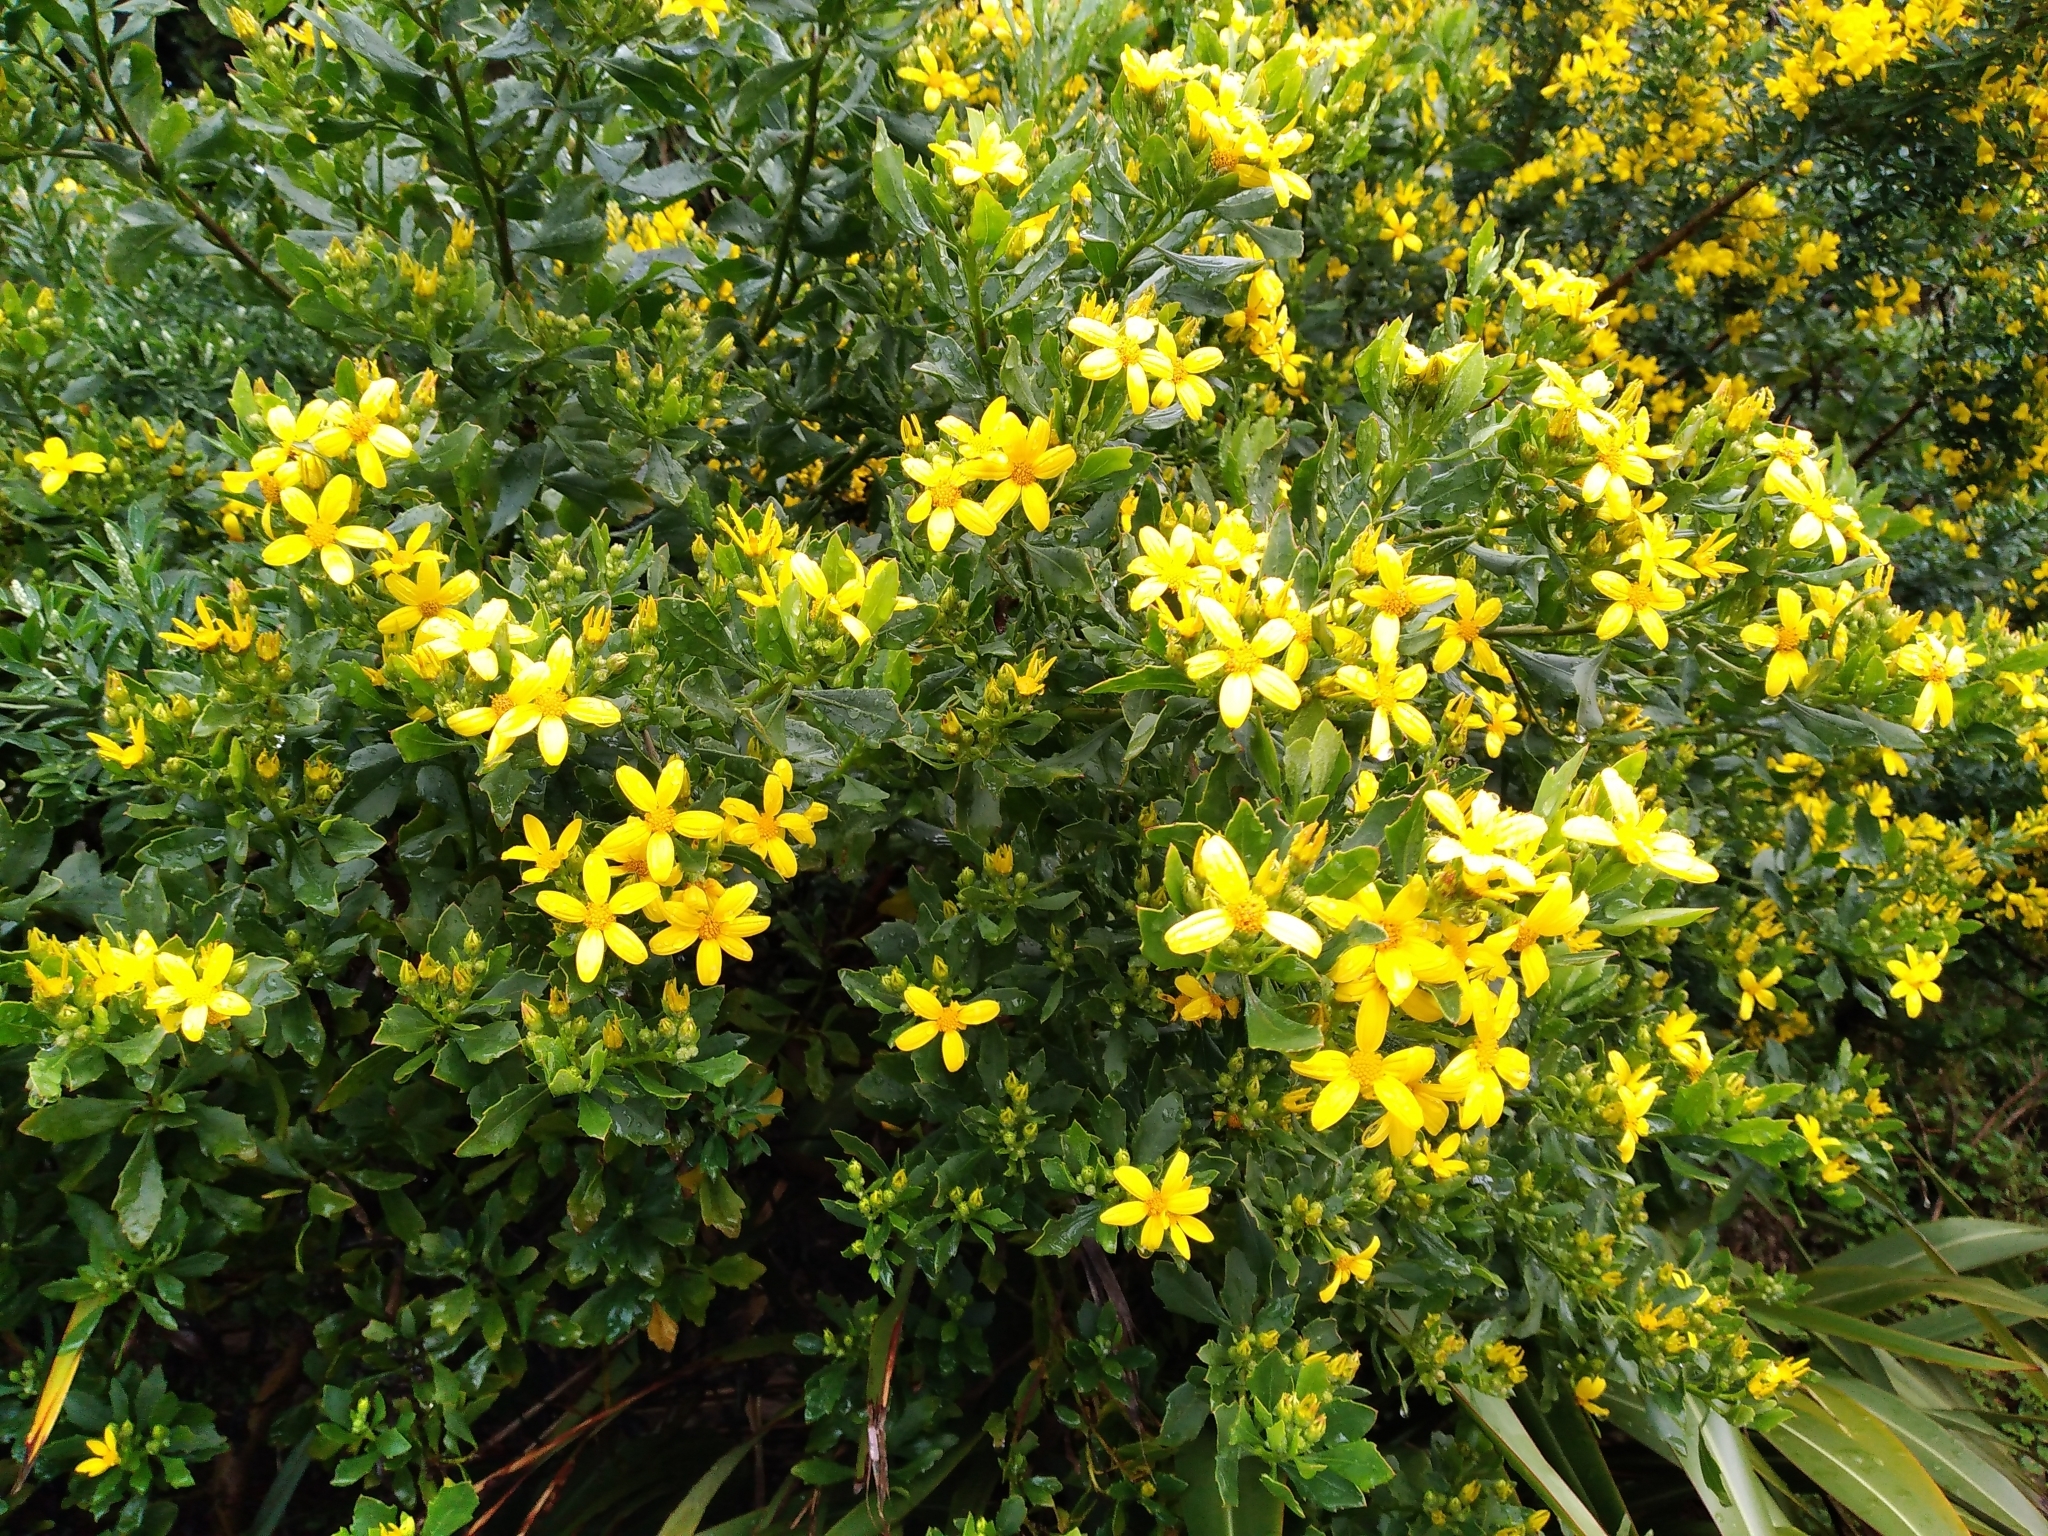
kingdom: Plantae
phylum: Tracheophyta
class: Magnoliopsida
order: Asterales
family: Asteraceae
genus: Osteospermum
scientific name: Osteospermum moniliferum
